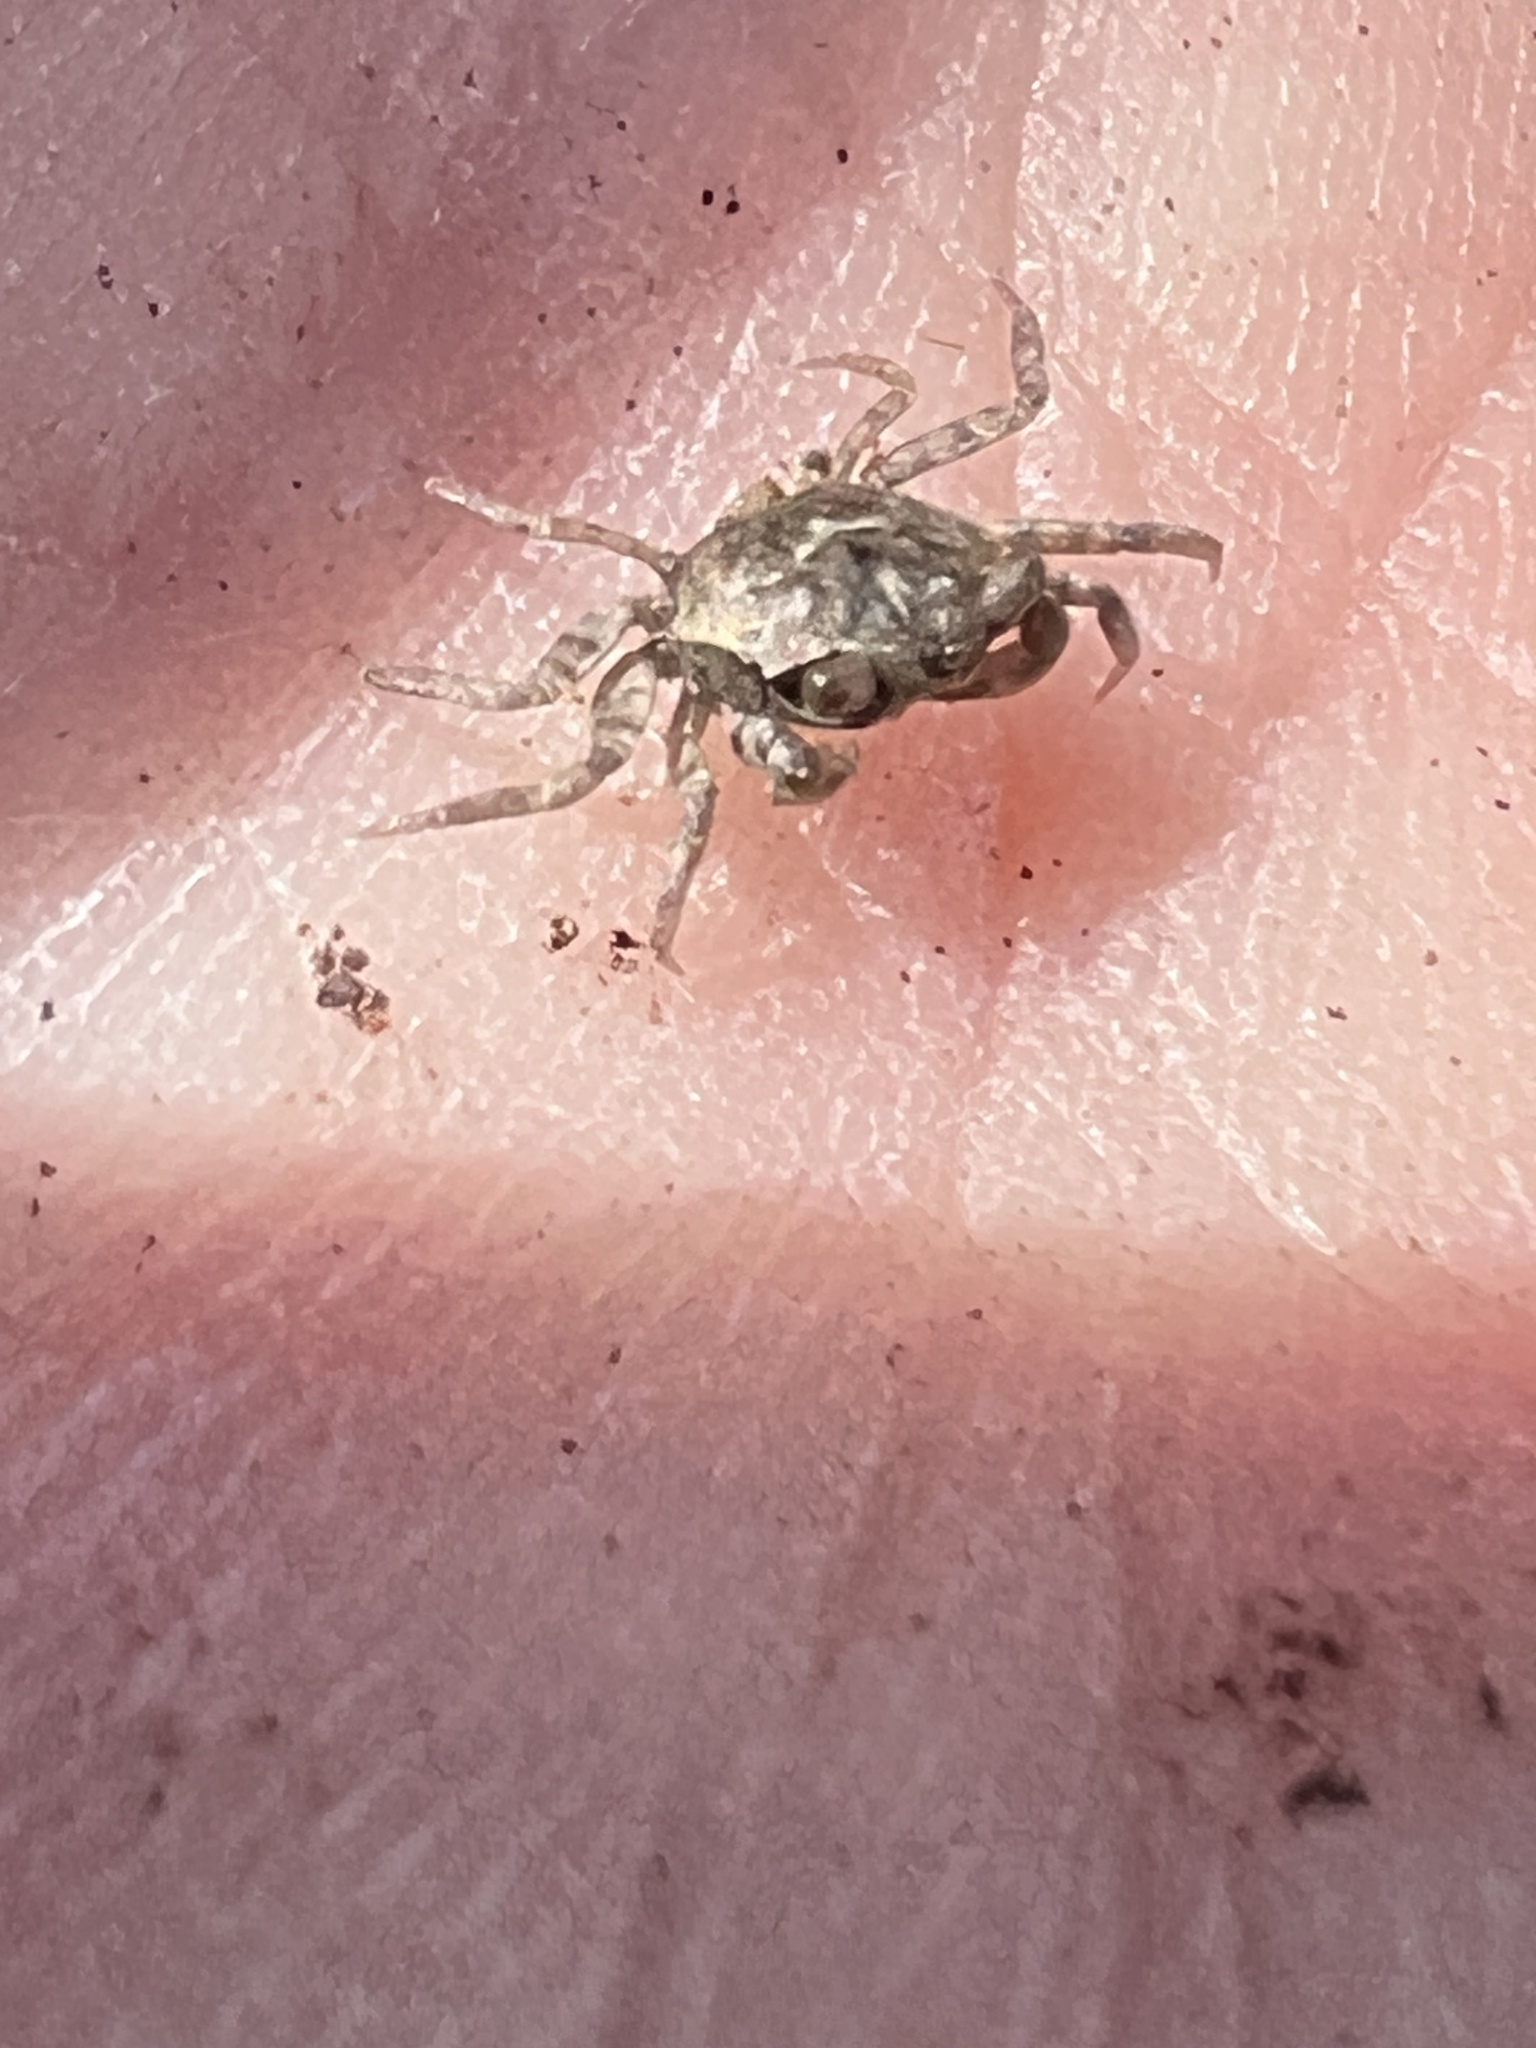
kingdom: Animalia
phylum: Arthropoda
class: Malacostraca
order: Decapoda
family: Varunidae
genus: Austrohelice
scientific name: Austrohelice crassa
